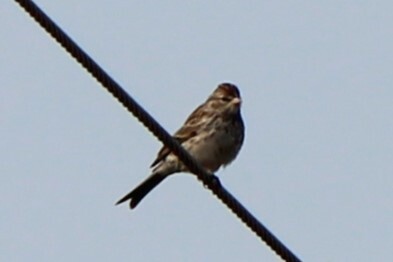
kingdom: Animalia
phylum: Chordata
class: Aves
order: Passeriformes
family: Passerellidae
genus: Spizella
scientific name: Spizella passerina
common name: Chipping sparrow
